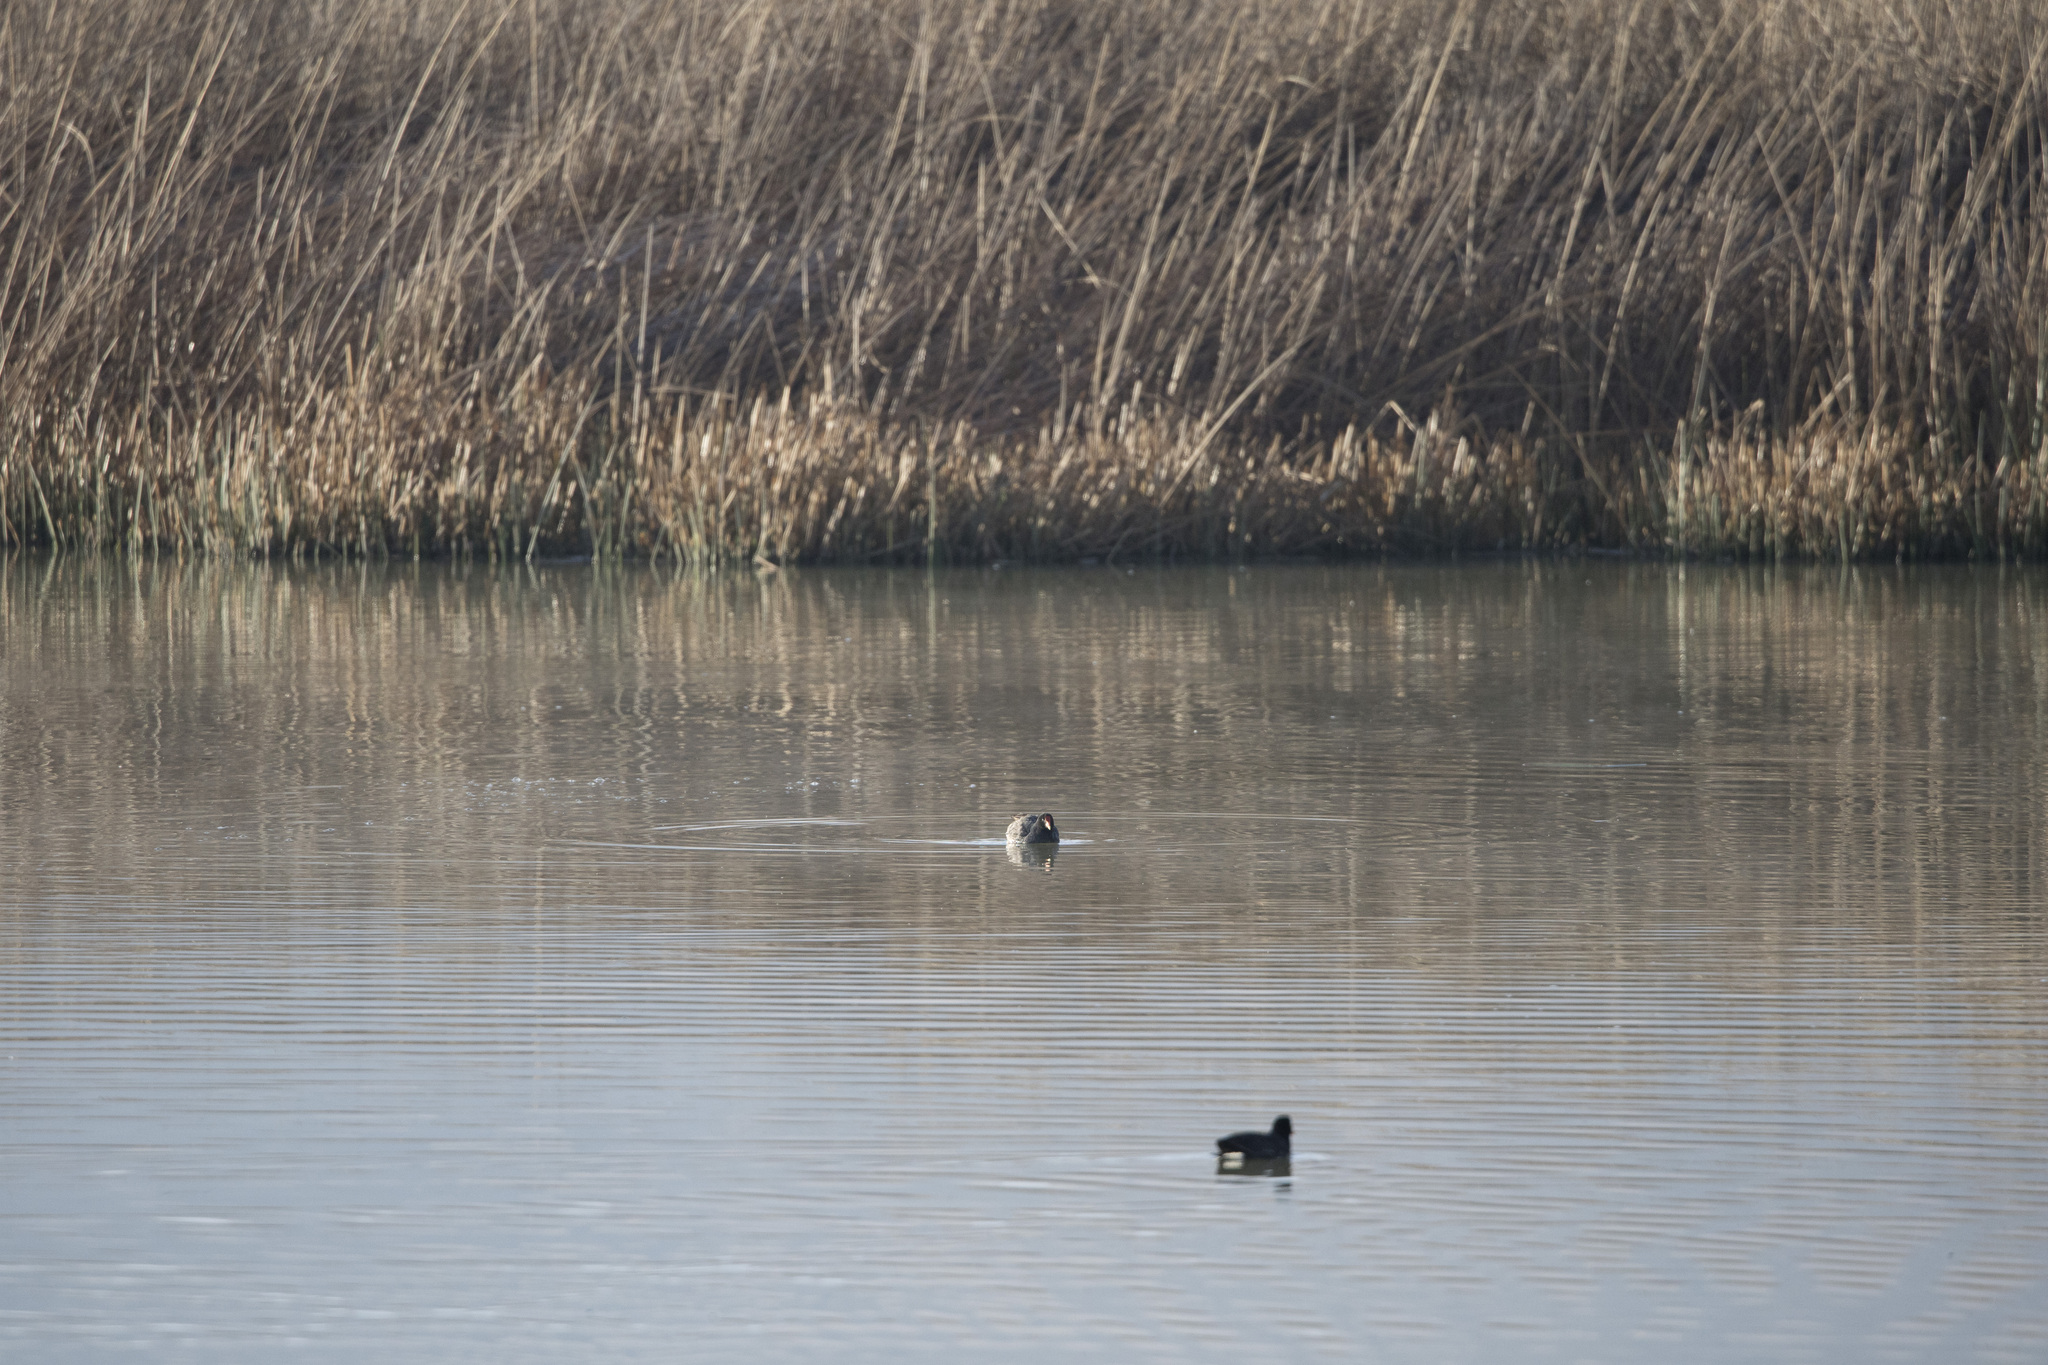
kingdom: Animalia
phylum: Chordata
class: Aves
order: Gruiformes
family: Rallidae
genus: Gallinula
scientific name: Gallinula chloropus
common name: Common moorhen
